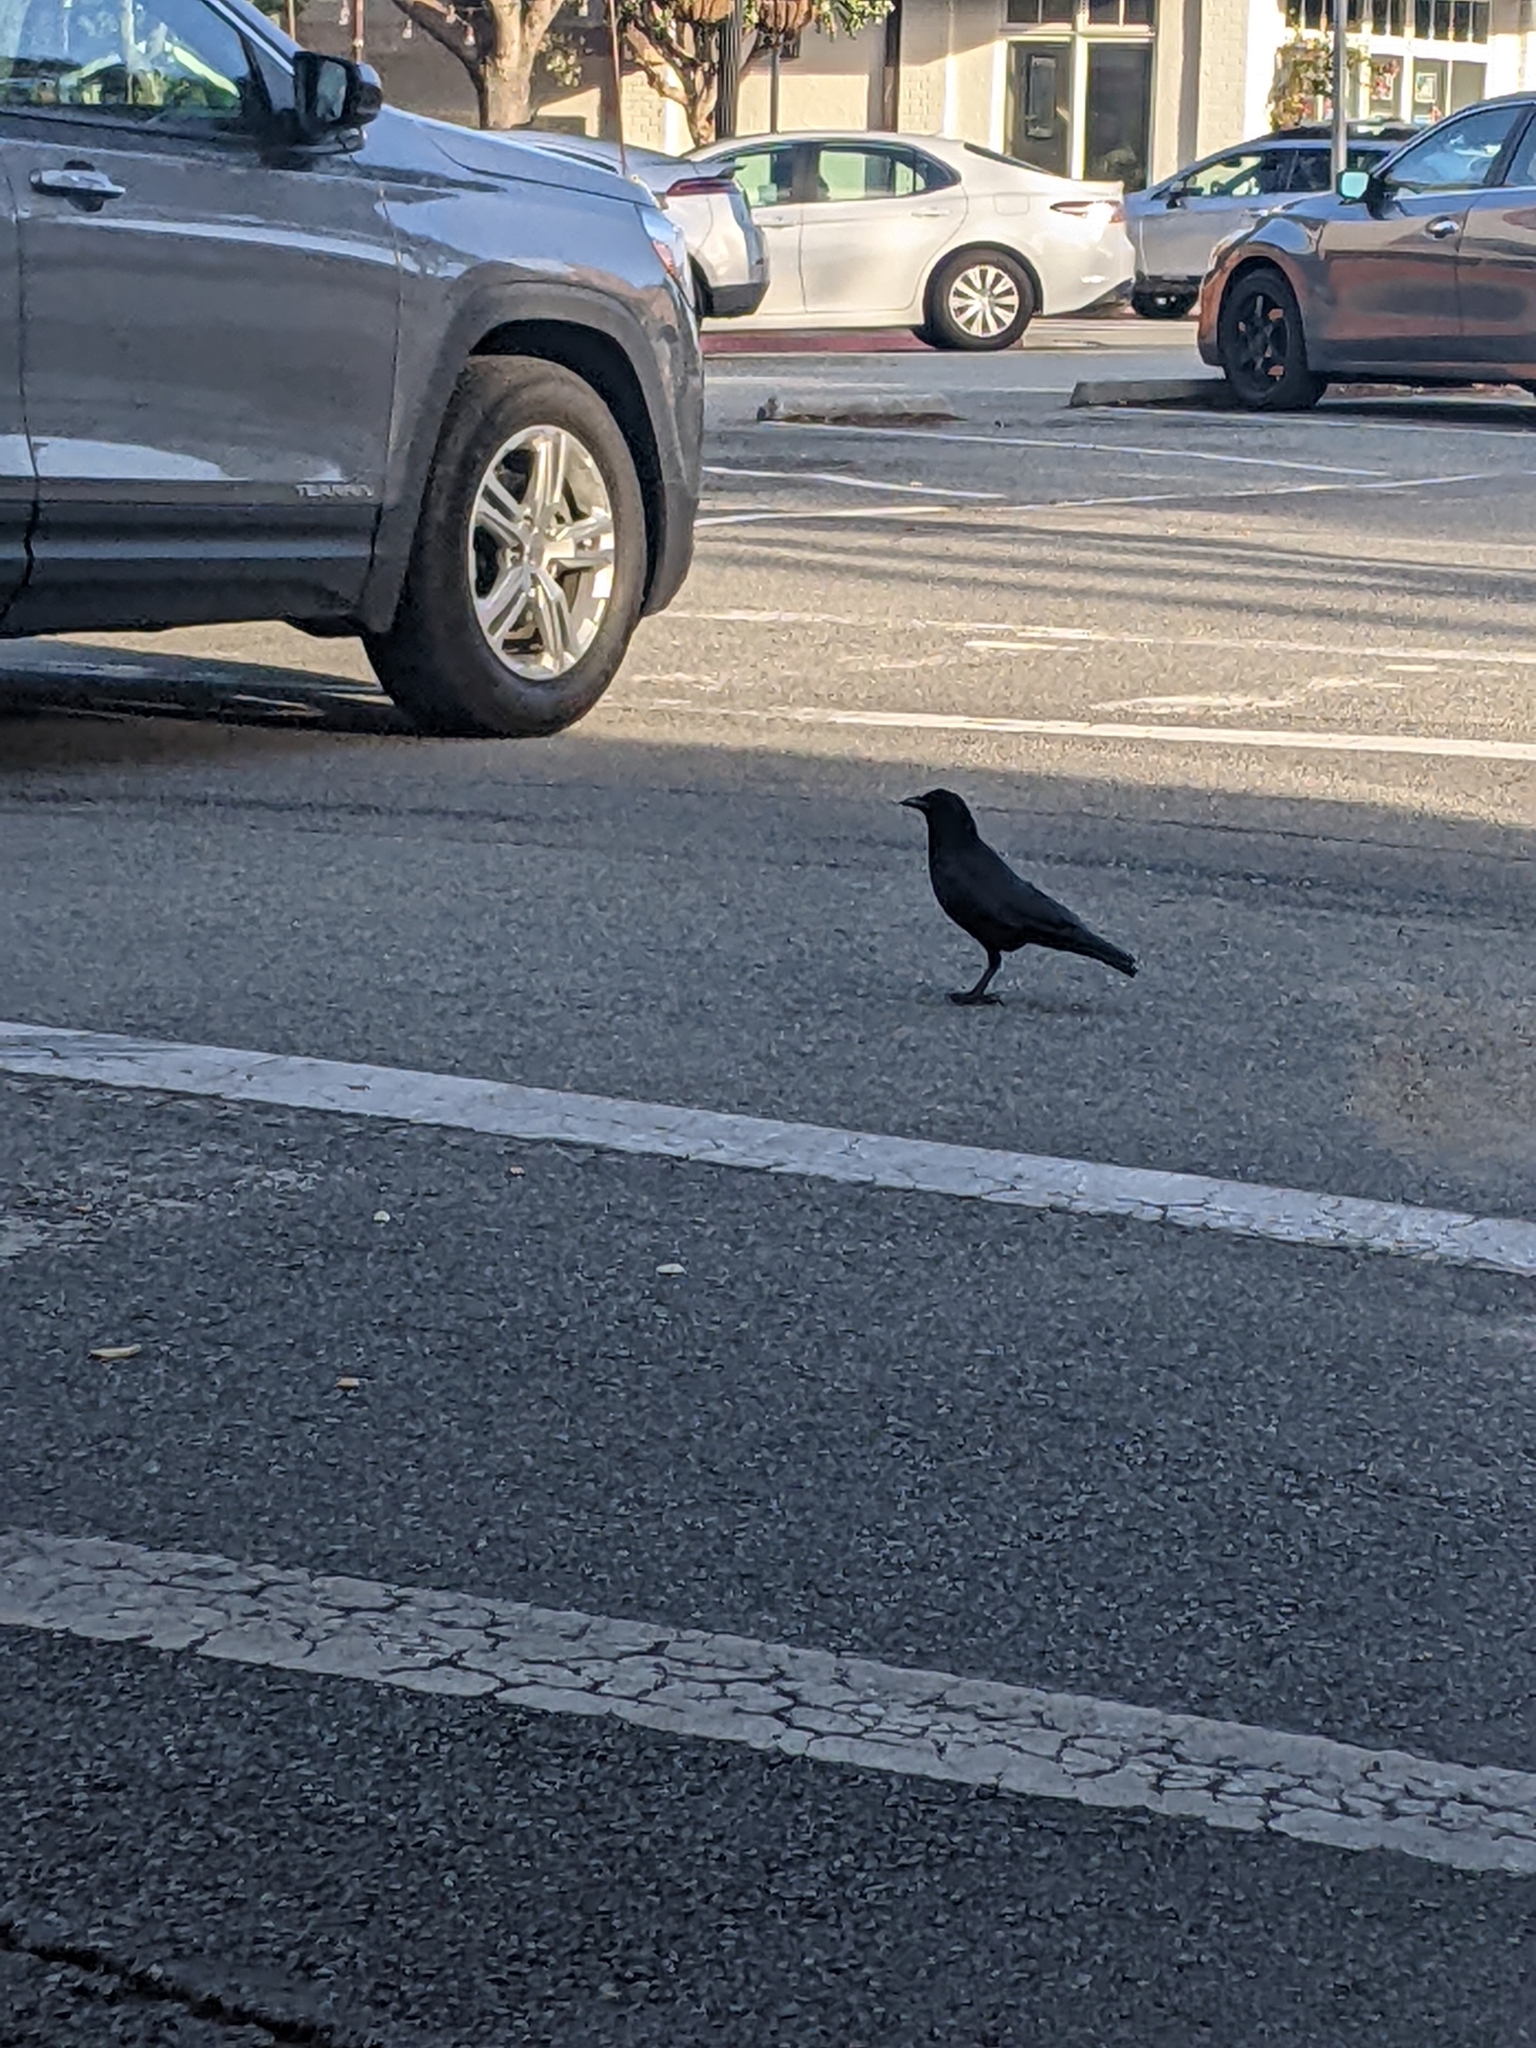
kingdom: Animalia
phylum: Chordata
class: Aves
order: Passeriformes
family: Corvidae
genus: Corvus
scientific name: Corvus brachyrhynchos
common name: American crow
